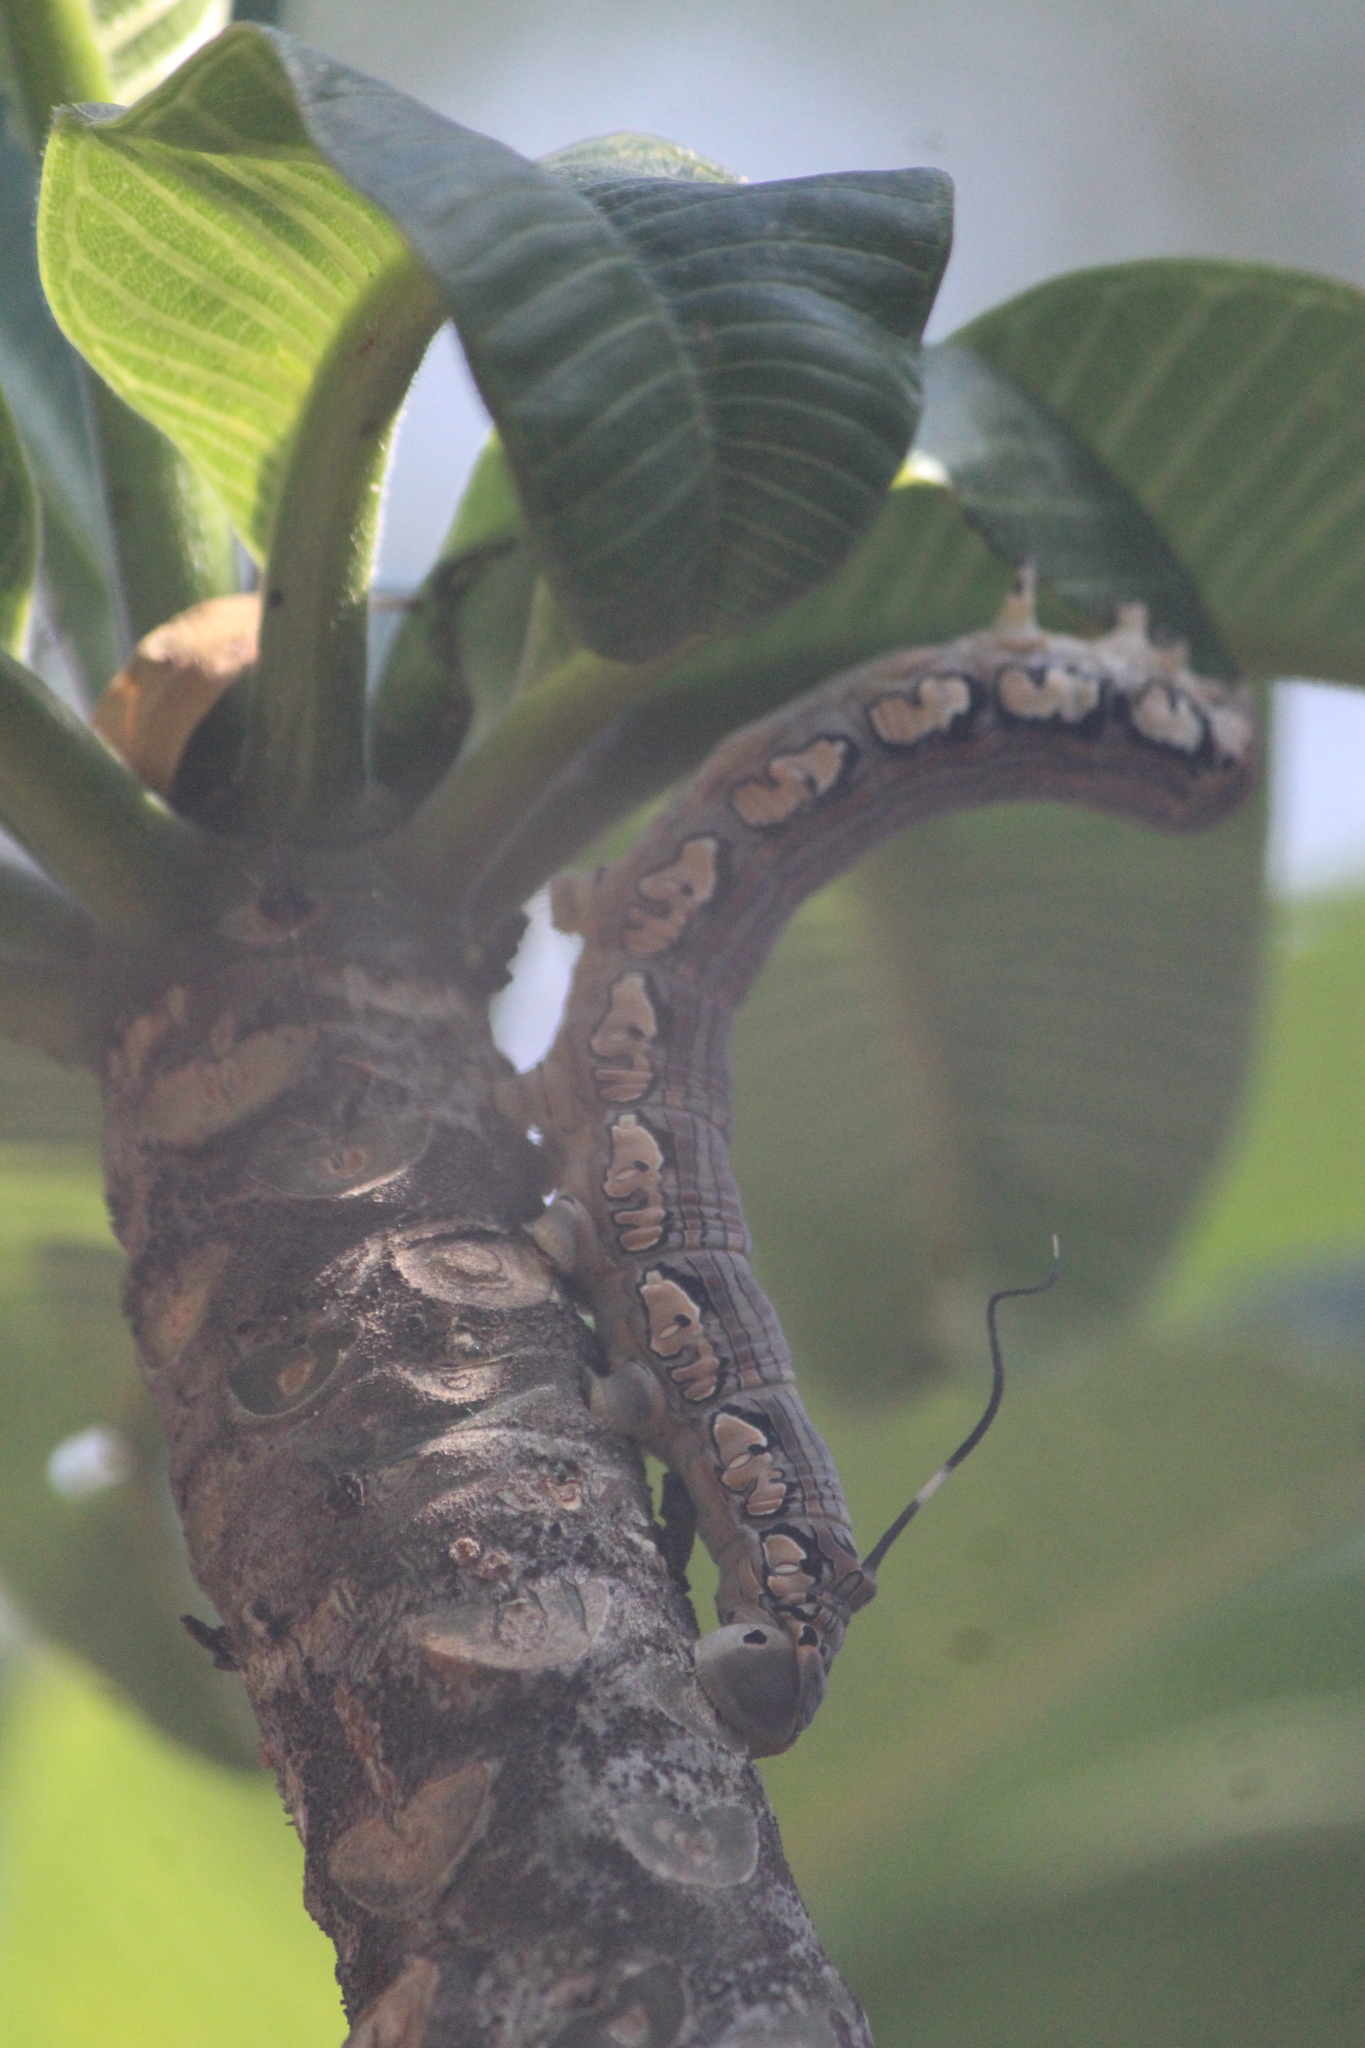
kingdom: Animalia
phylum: Arthropoda
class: Insecta
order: Lepidoptera
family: Sphingidae
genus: Isognathus
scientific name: Isognathus rimosa
